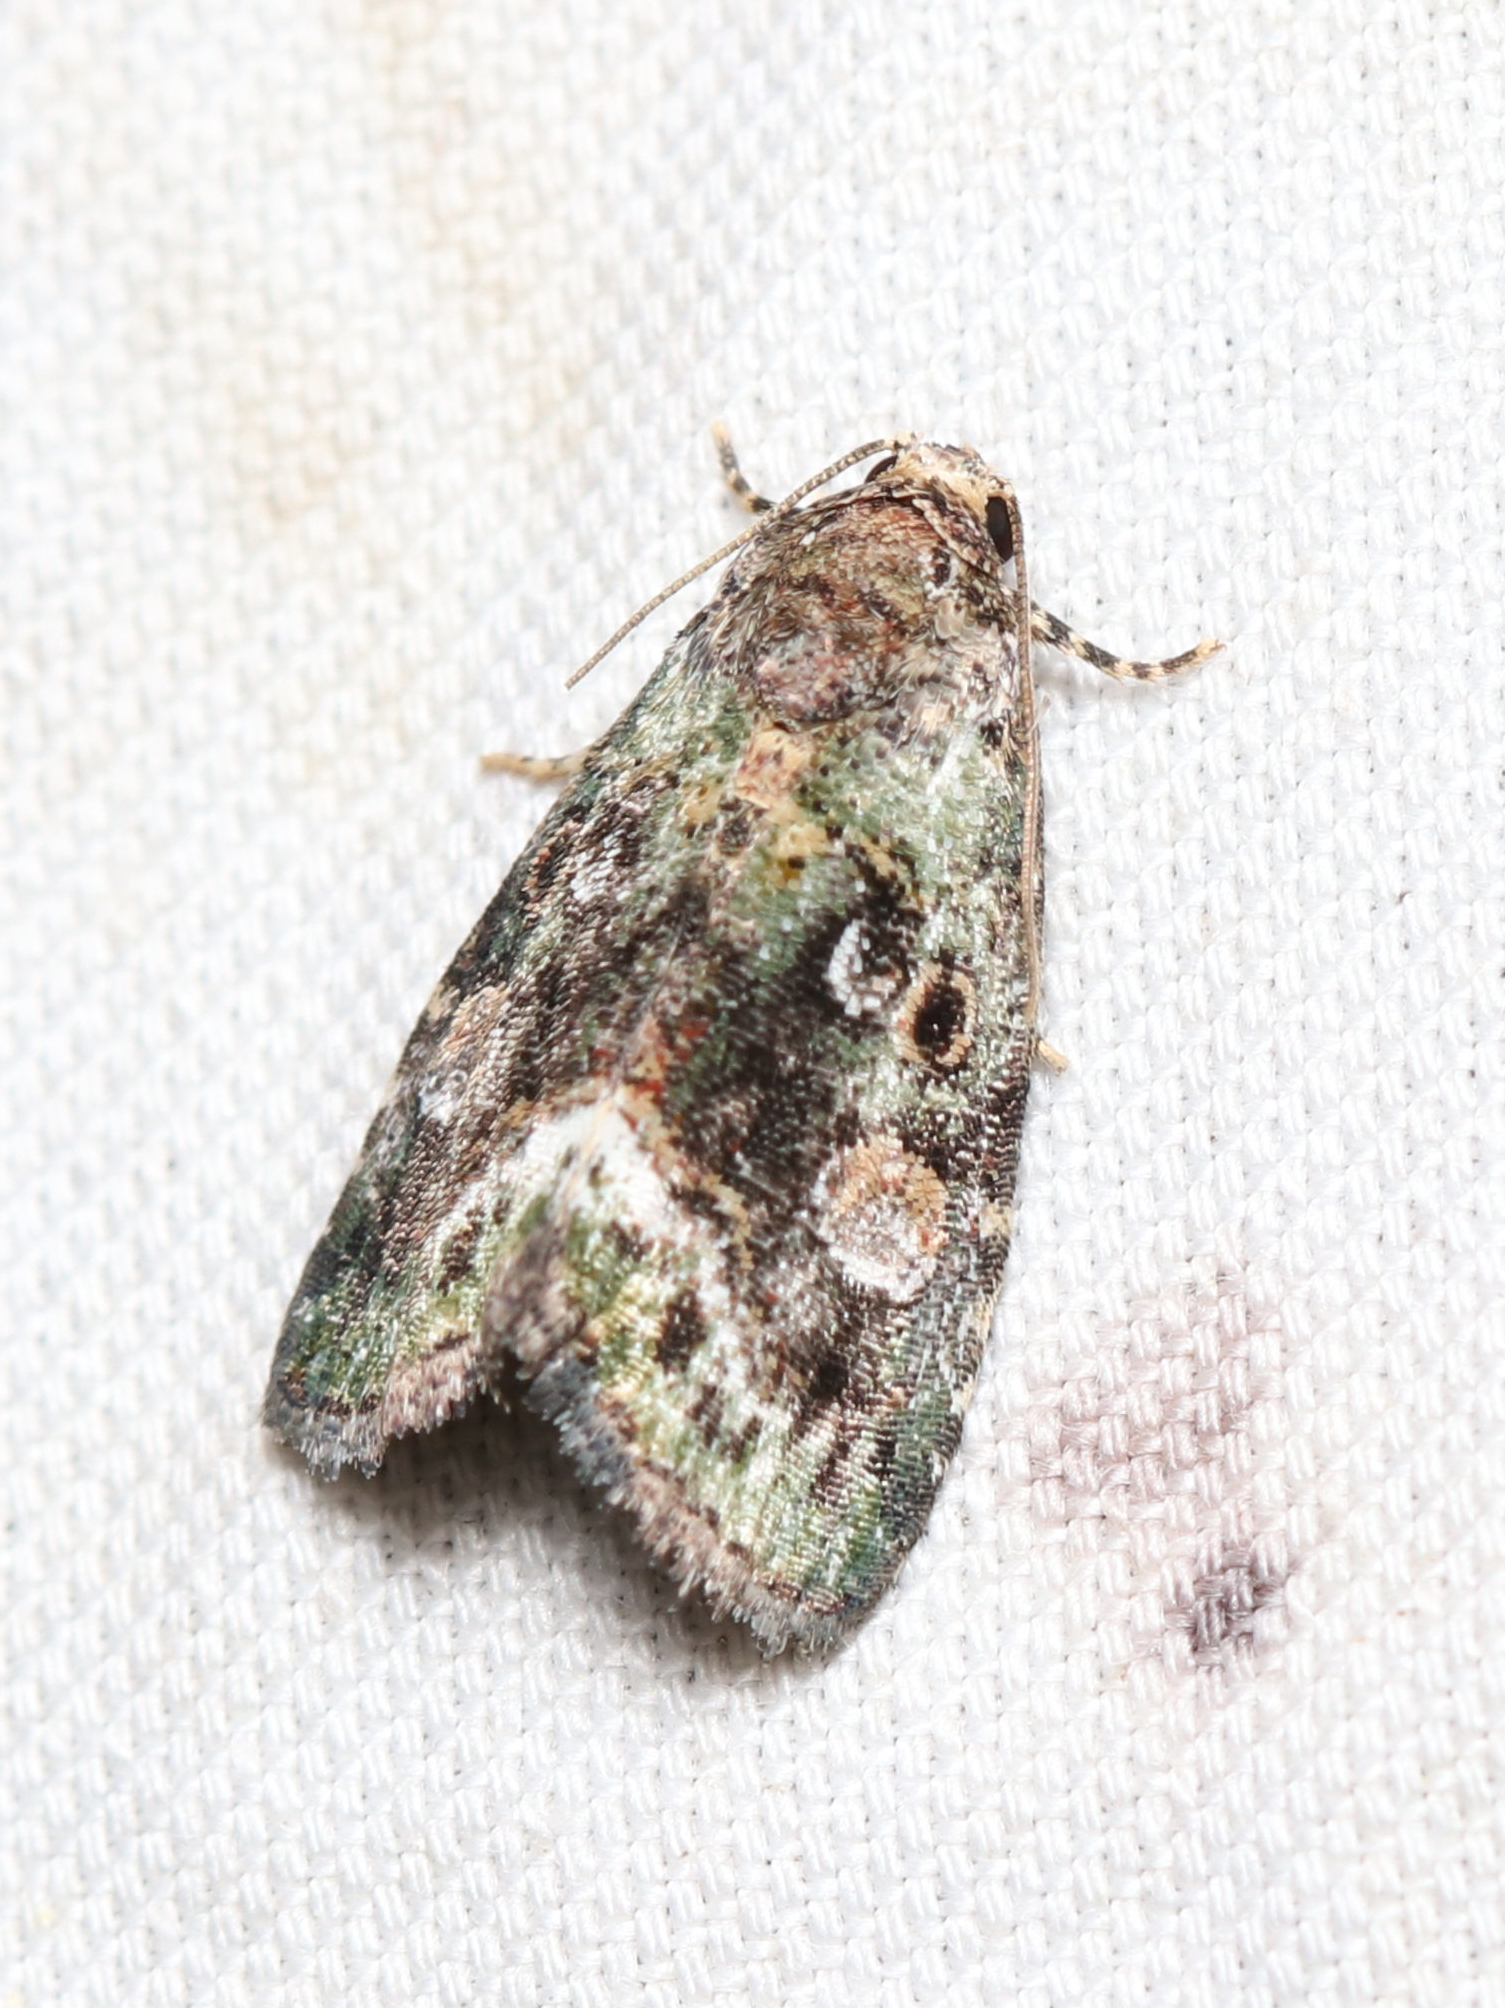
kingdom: Animalia
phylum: Arthropoda
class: Insecta
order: Lepidoptera
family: Noctuidae
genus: Lithacodia
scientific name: Lithacodia musta
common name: Small mossy glyph
